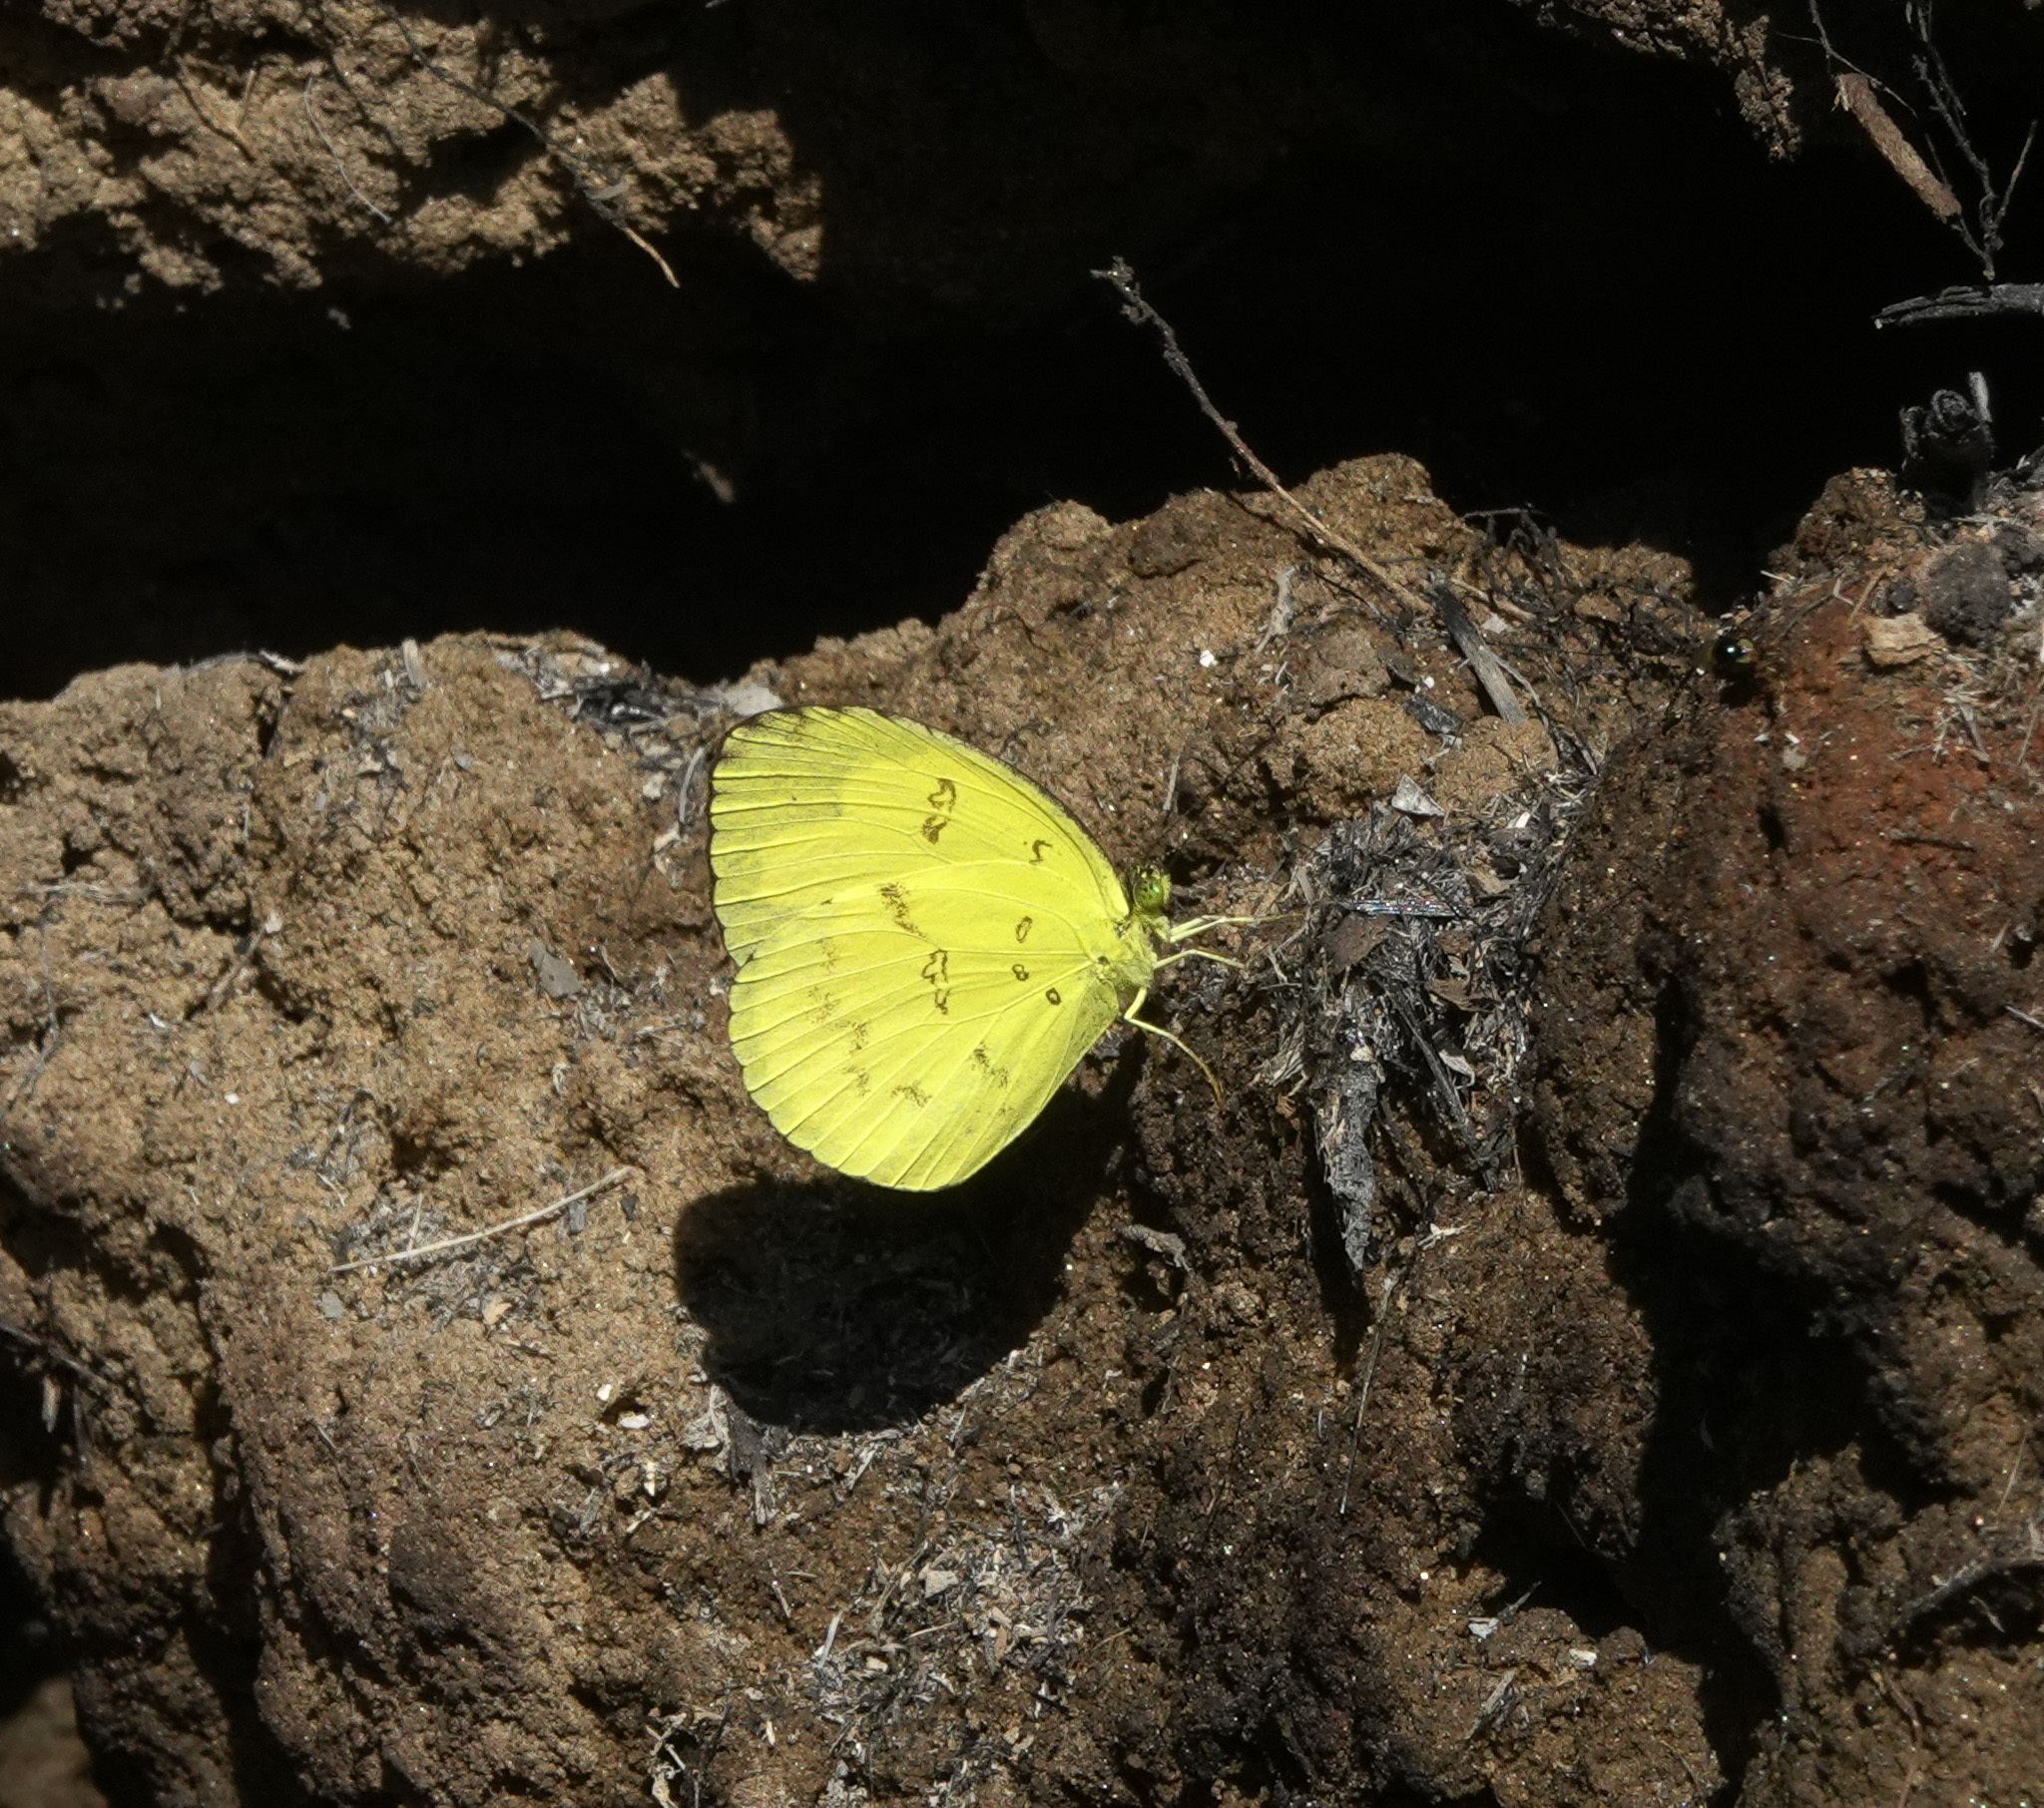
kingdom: Animalia
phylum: Arthropoda
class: Insecta
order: Lepidoptera
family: Pieridae
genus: Eurema
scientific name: Eurema andersoni
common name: One-spot yellow grass
